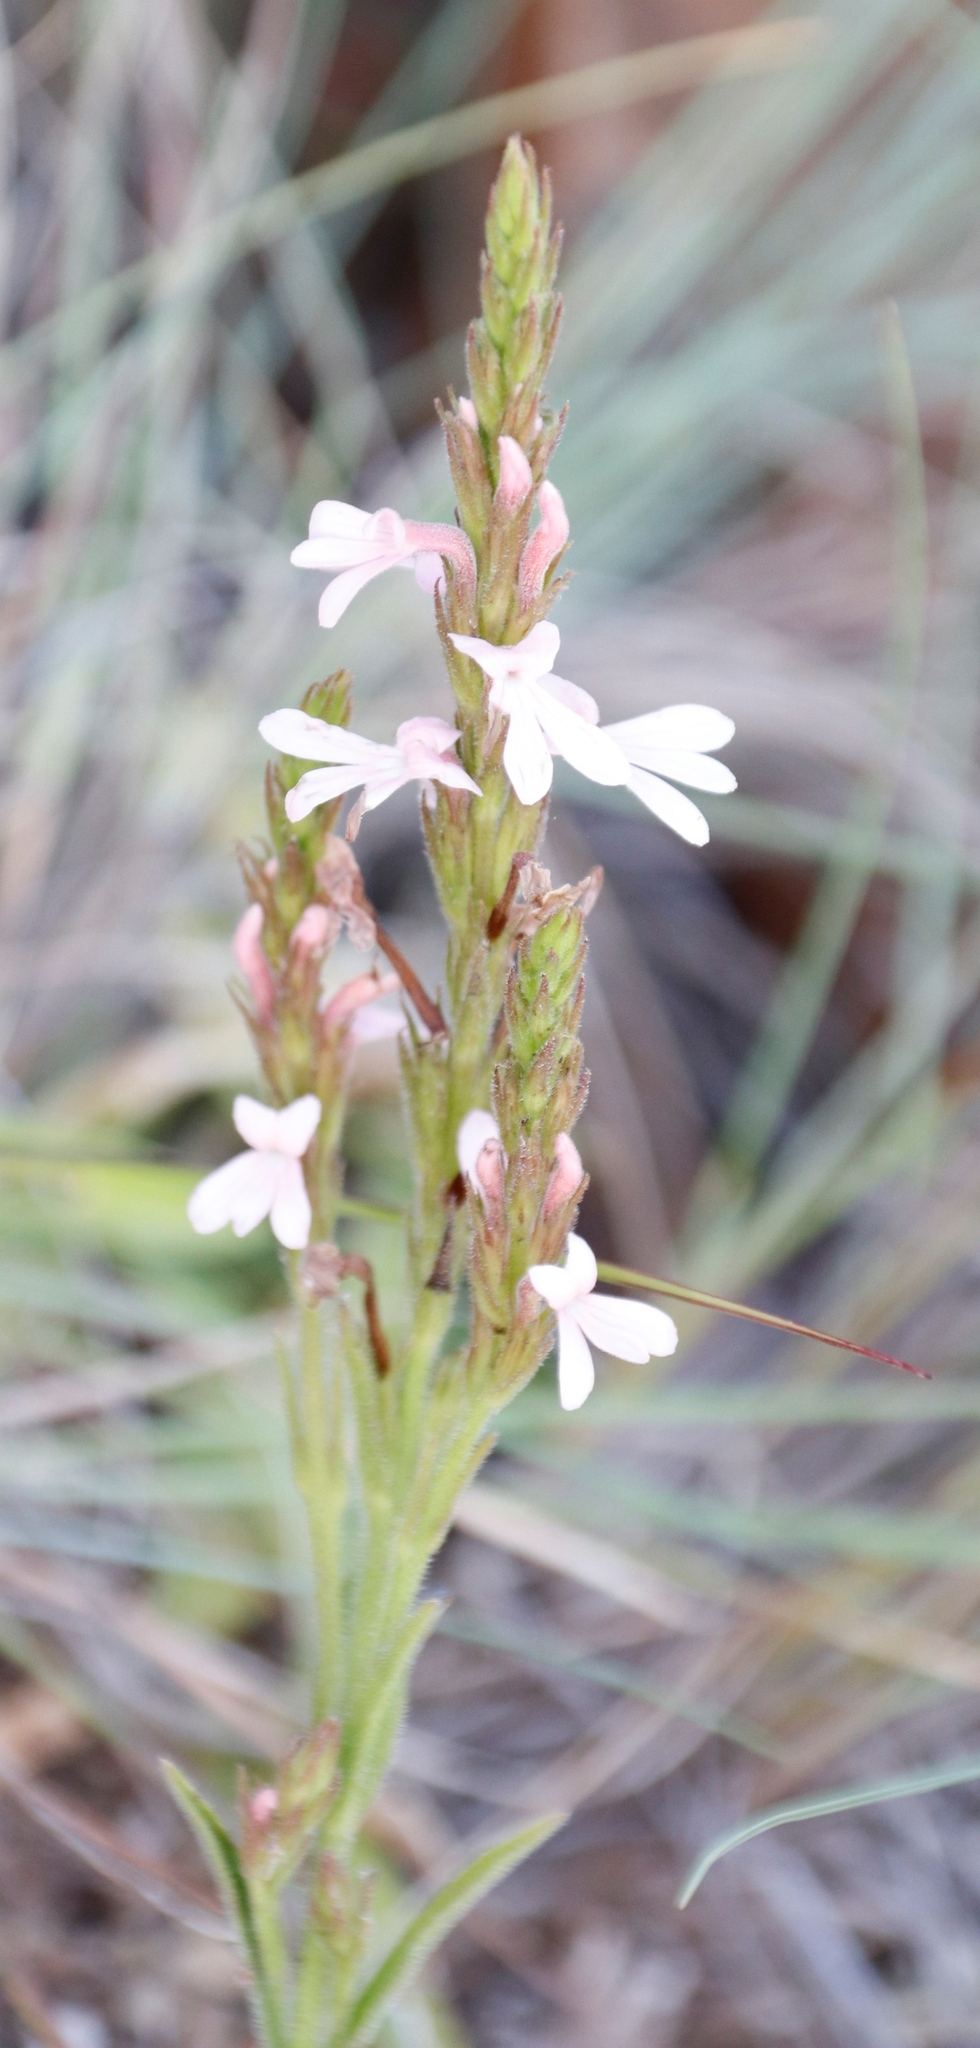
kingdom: Plantae
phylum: Tracheophyta
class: Magnoliopsida
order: Lamiales
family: Orobanchaceae
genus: Striga
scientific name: Striga elegans
